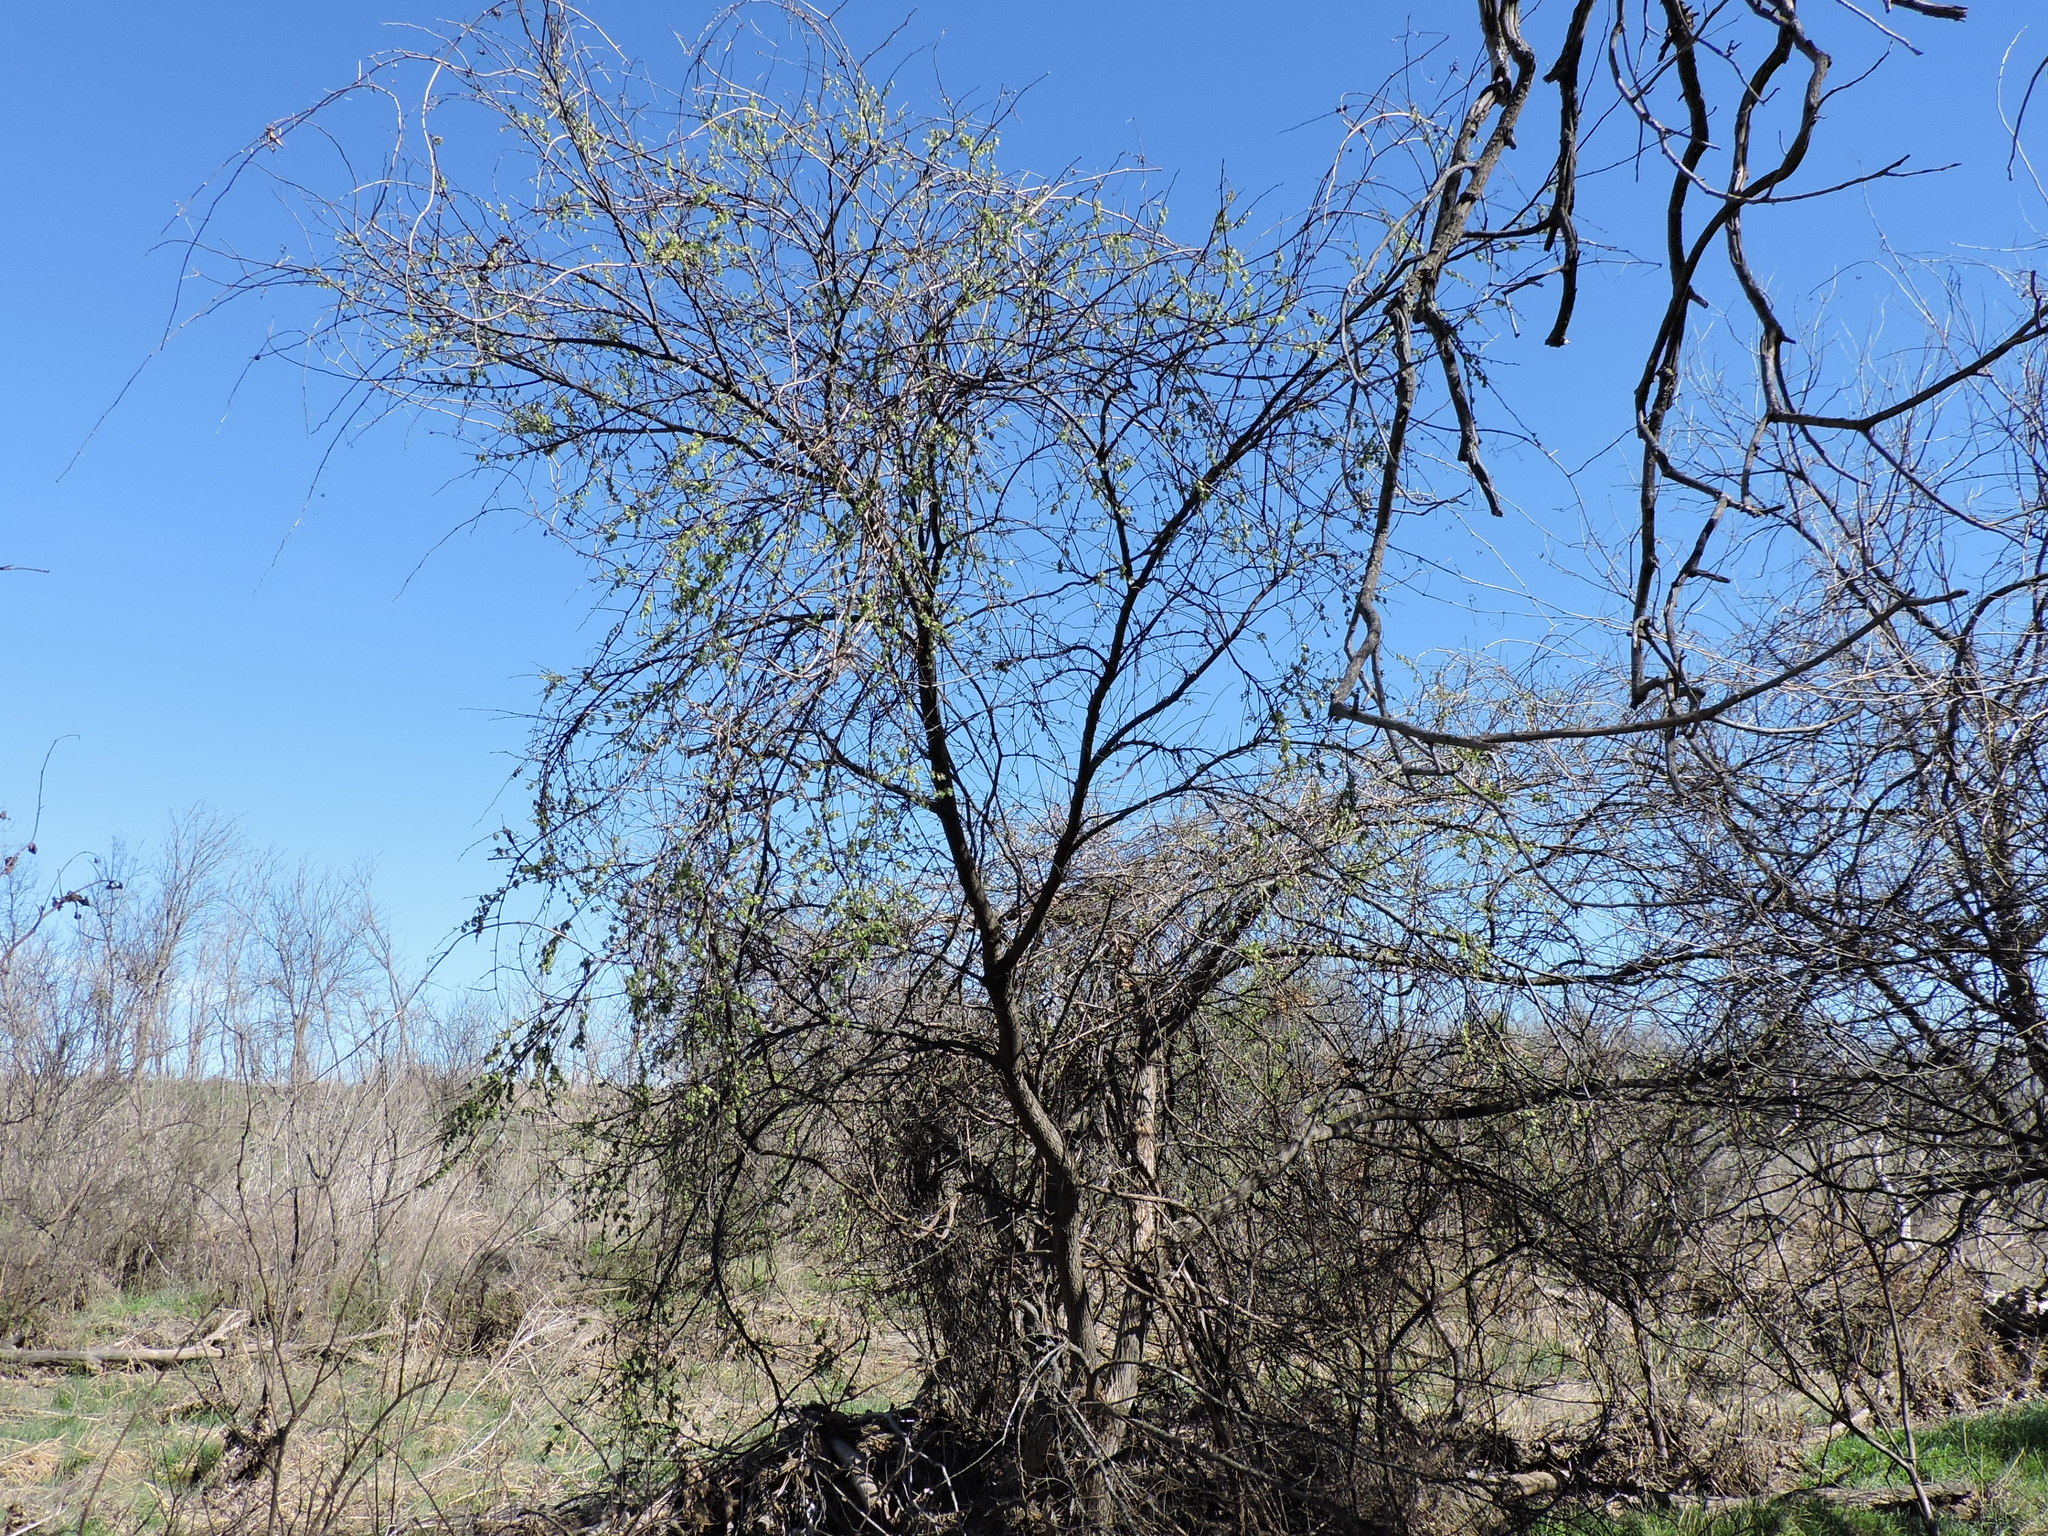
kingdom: Plantae
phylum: Tracheophyta
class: Magnoliopsida
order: Rosales
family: Ulmaceae
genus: Ulmus
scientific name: Ulmus americana
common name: American elm
